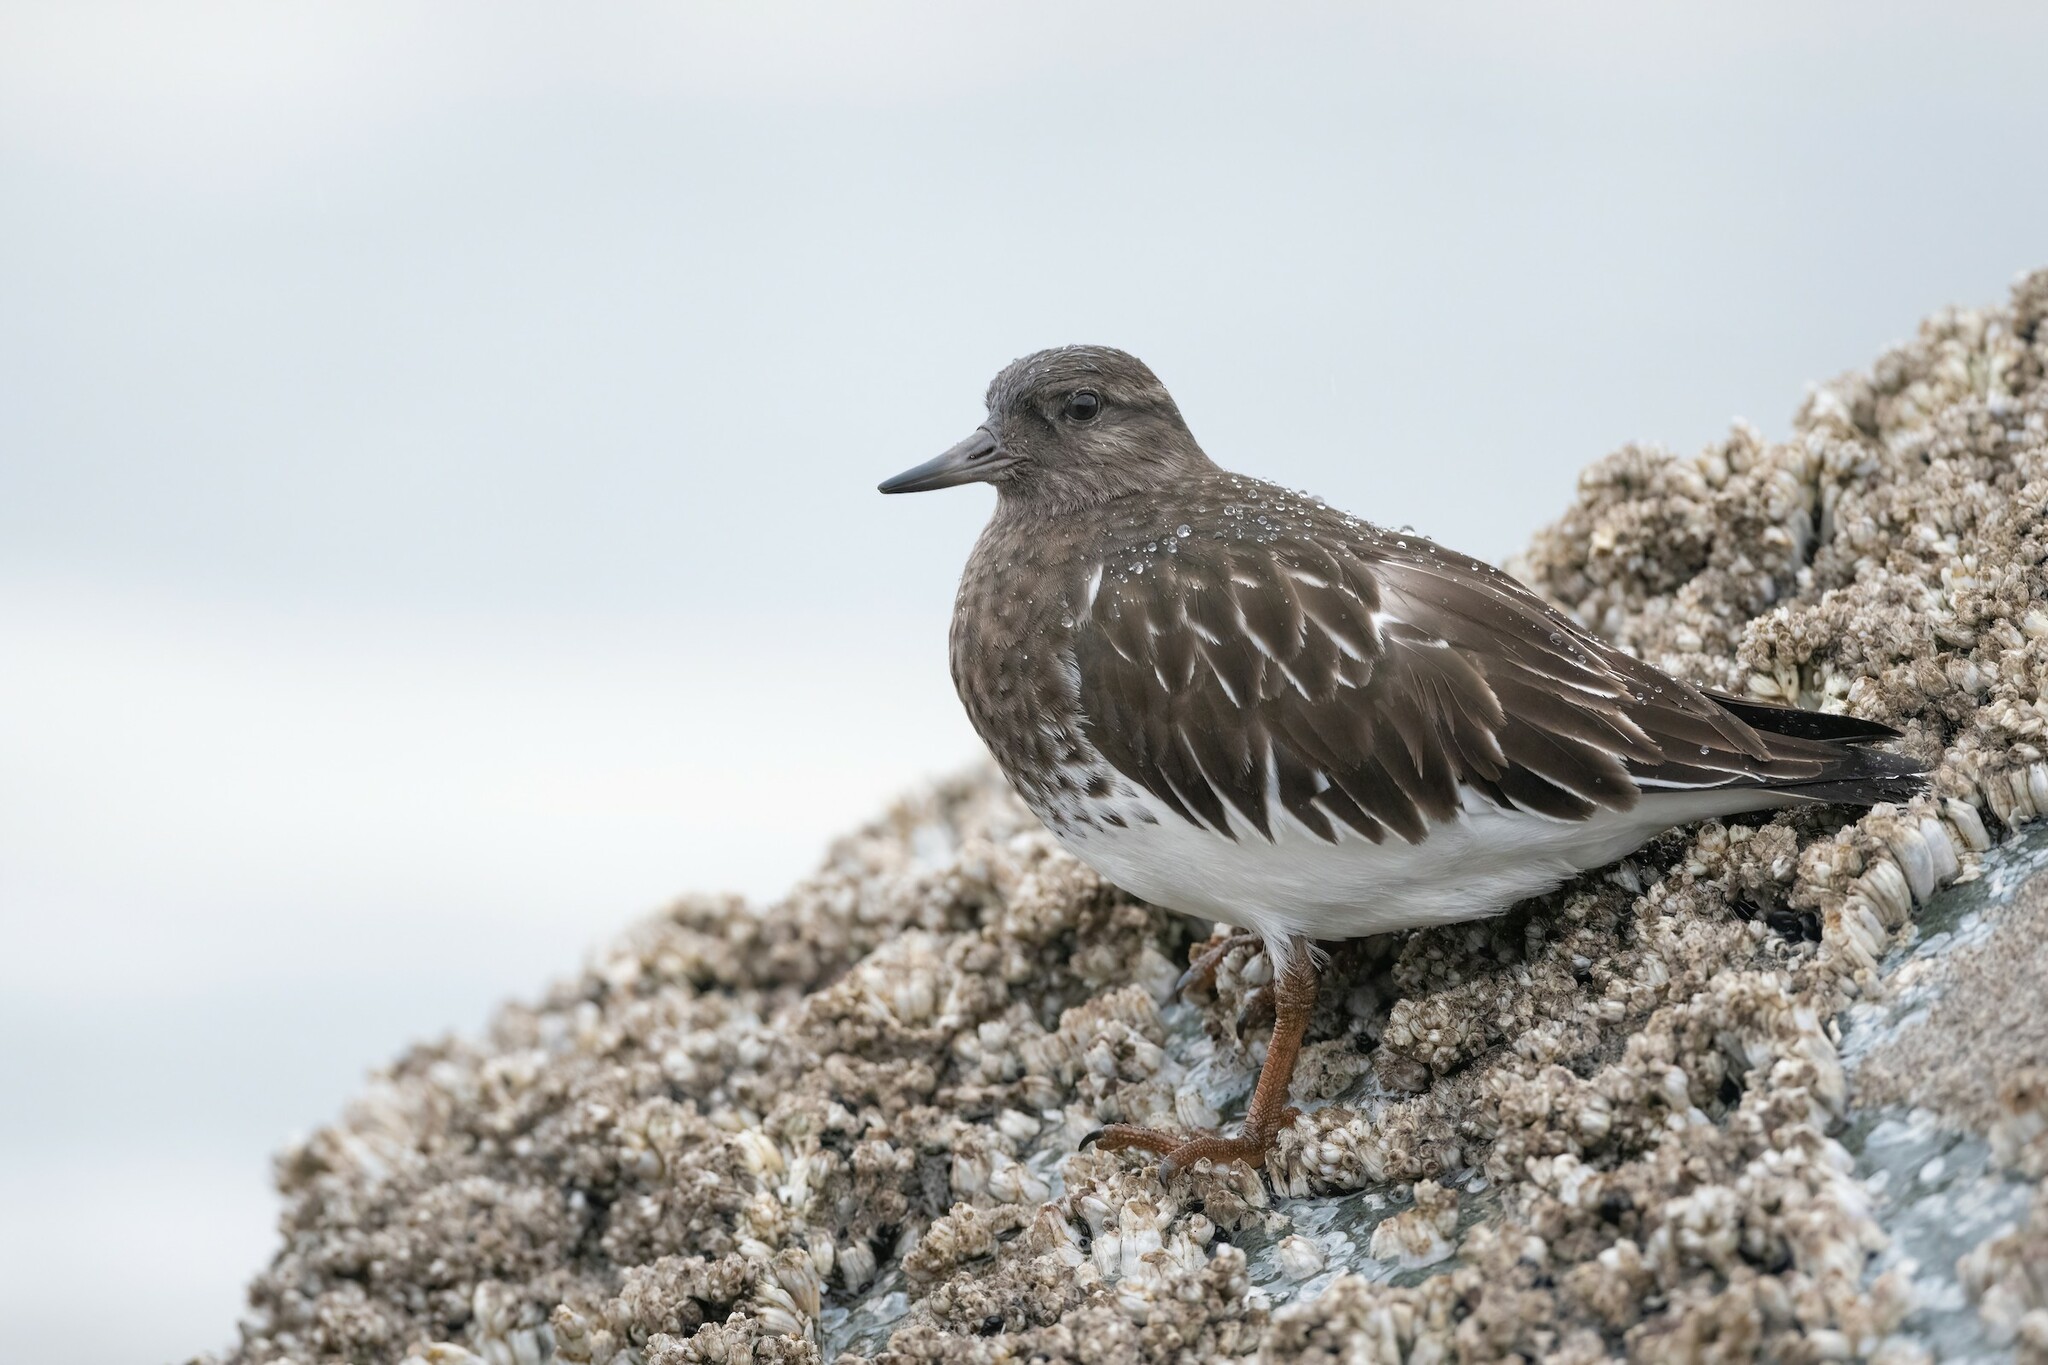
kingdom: Animalia
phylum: Chordata
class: Aves
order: Charadriiformes
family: Scolopacidae
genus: Arenaria
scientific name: Arenaria melanocephala
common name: Black turnstone
